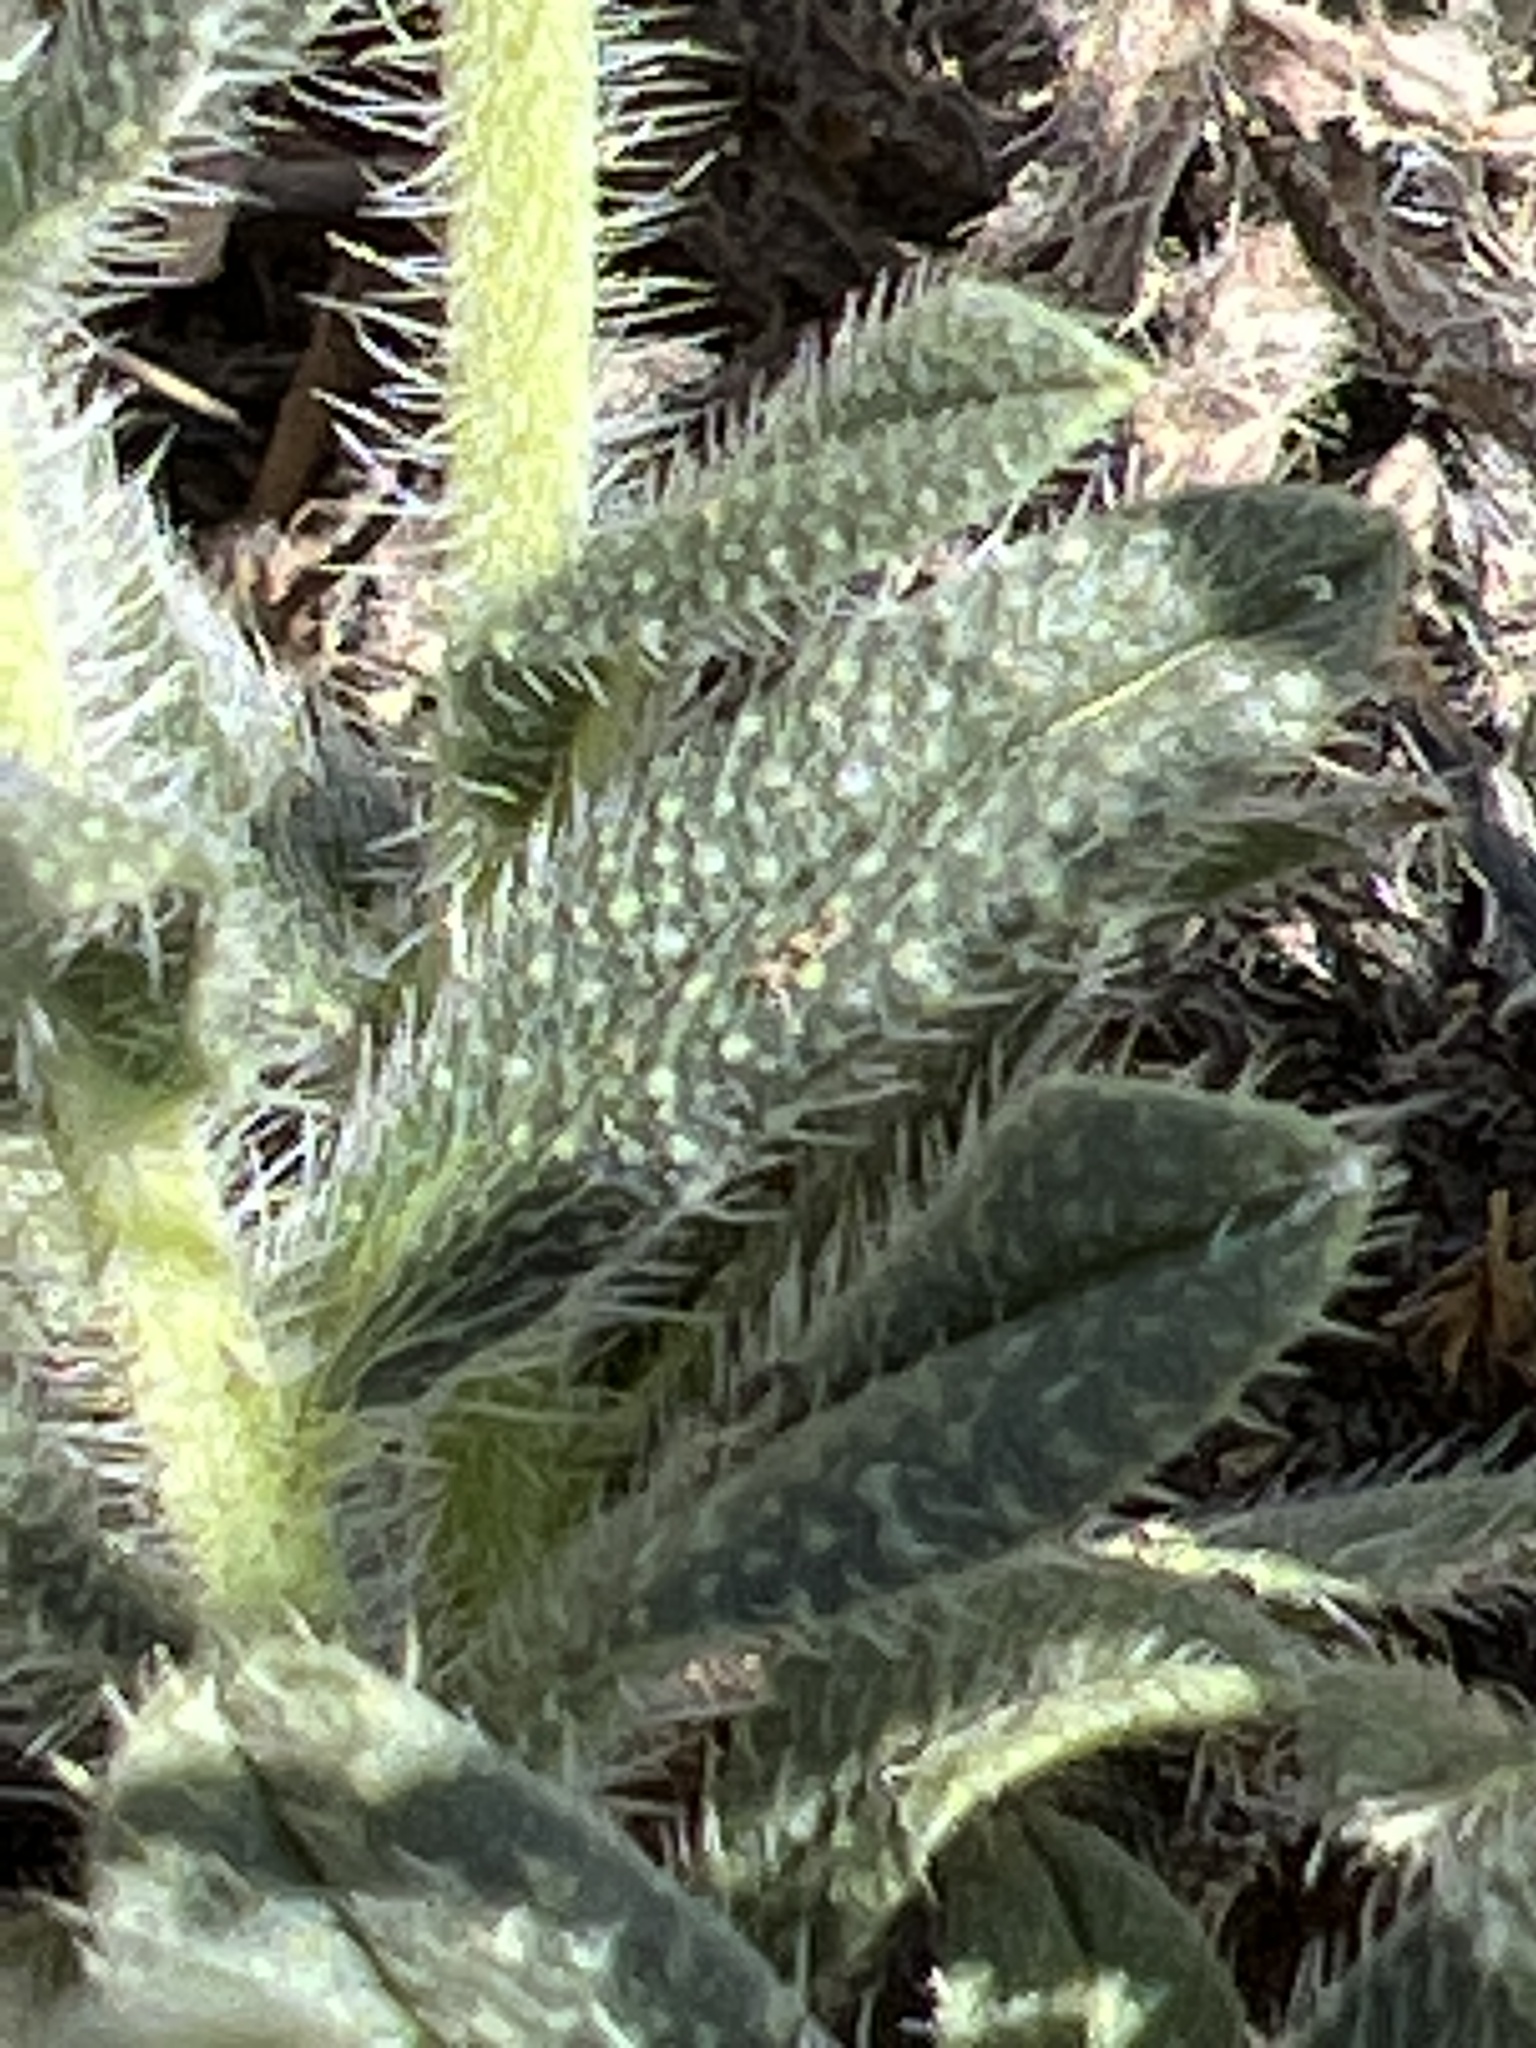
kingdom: Plantae
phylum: Tracheophyta
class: Magnoliopsida
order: Boraginales
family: Boraginaceae
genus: Echium
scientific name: Echium vulgare
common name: Common viper's bugloss
